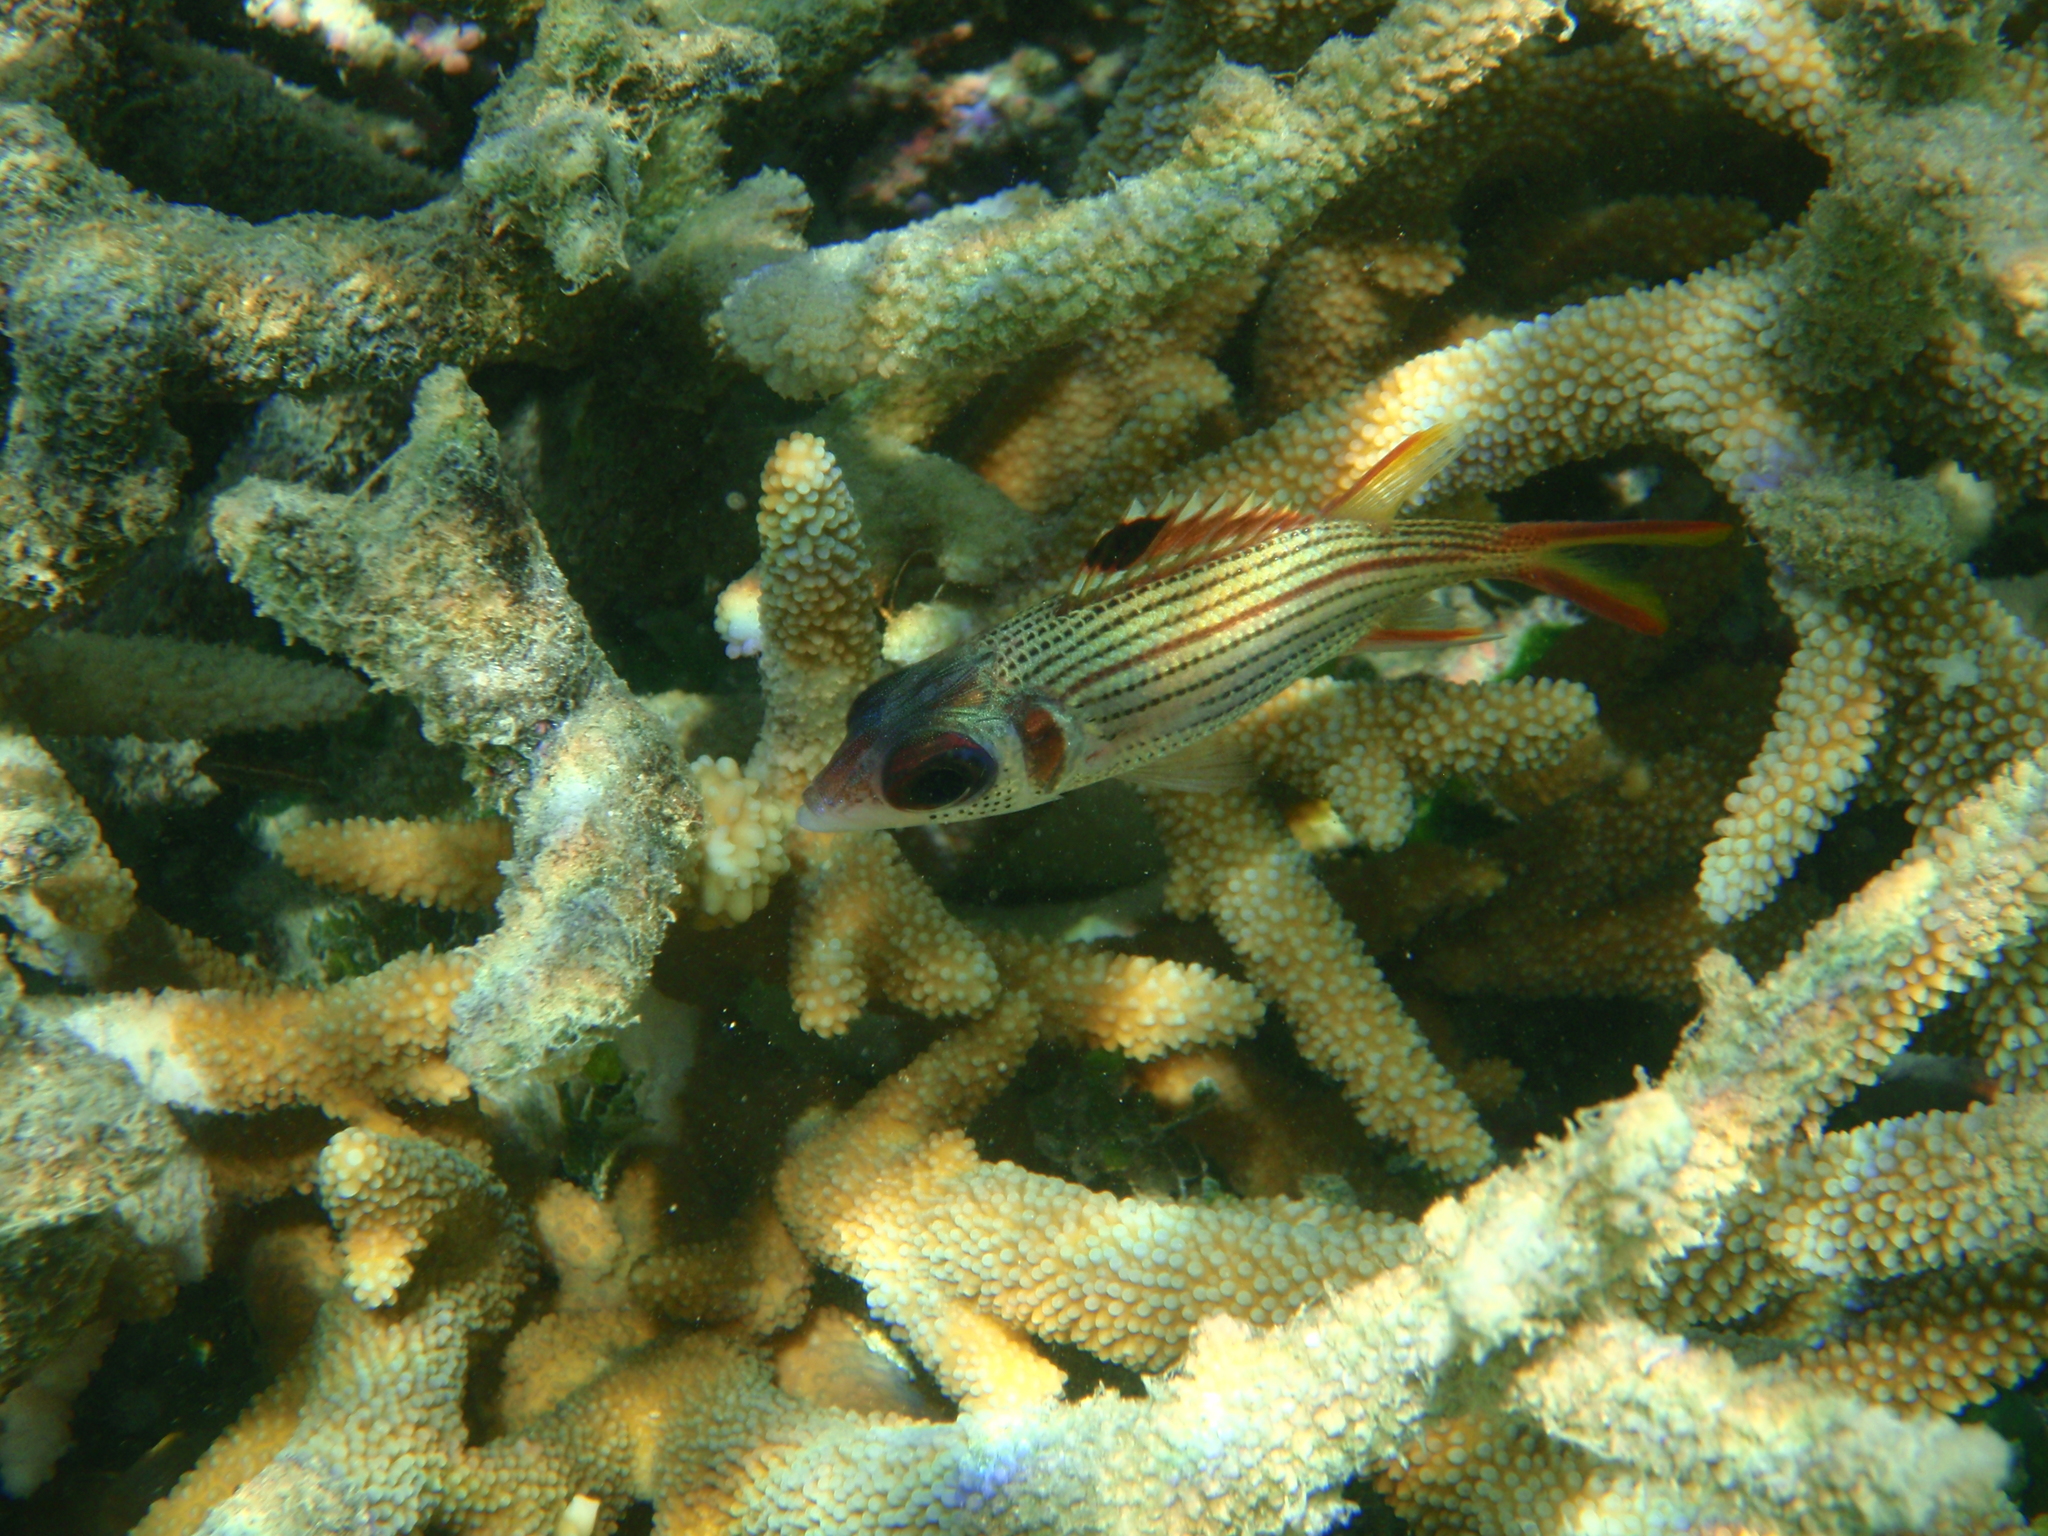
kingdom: Animalia
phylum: Chordata
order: Beryciformes
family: Holocentridae
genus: Neoniphon
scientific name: Neoniphon sammara
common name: Sammara squirrelfish
